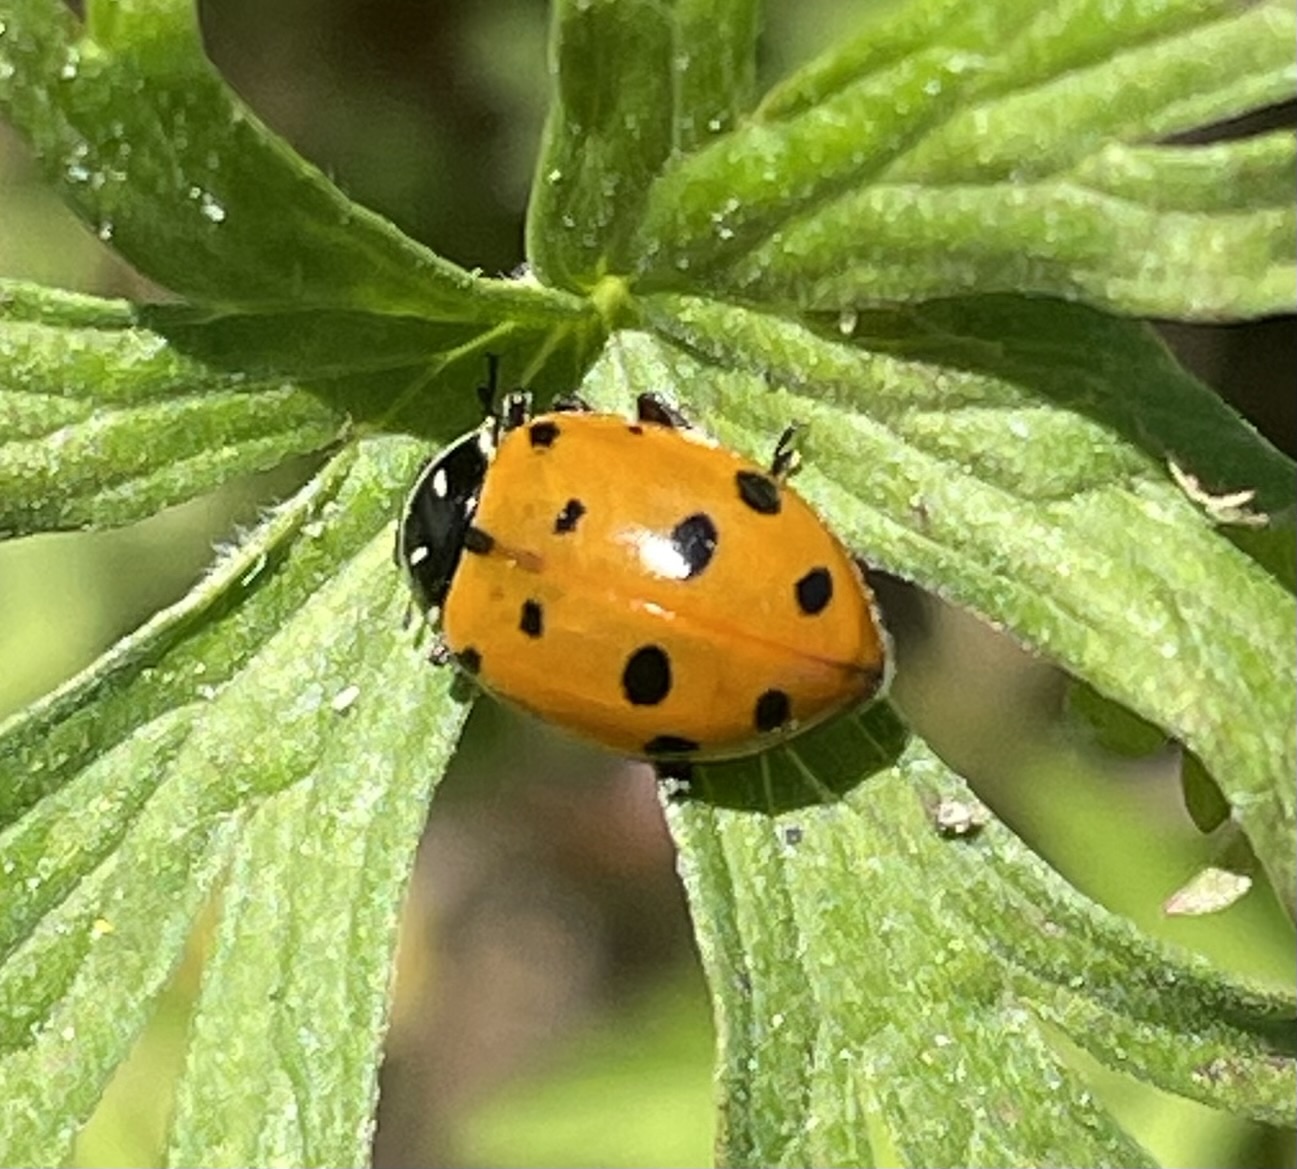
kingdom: Animalia
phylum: Arthropoda
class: Insecta
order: Coleoptera
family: Coccinellidae
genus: Hippodamia
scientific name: Hippodamia convergens
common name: Convergent lady beetle
